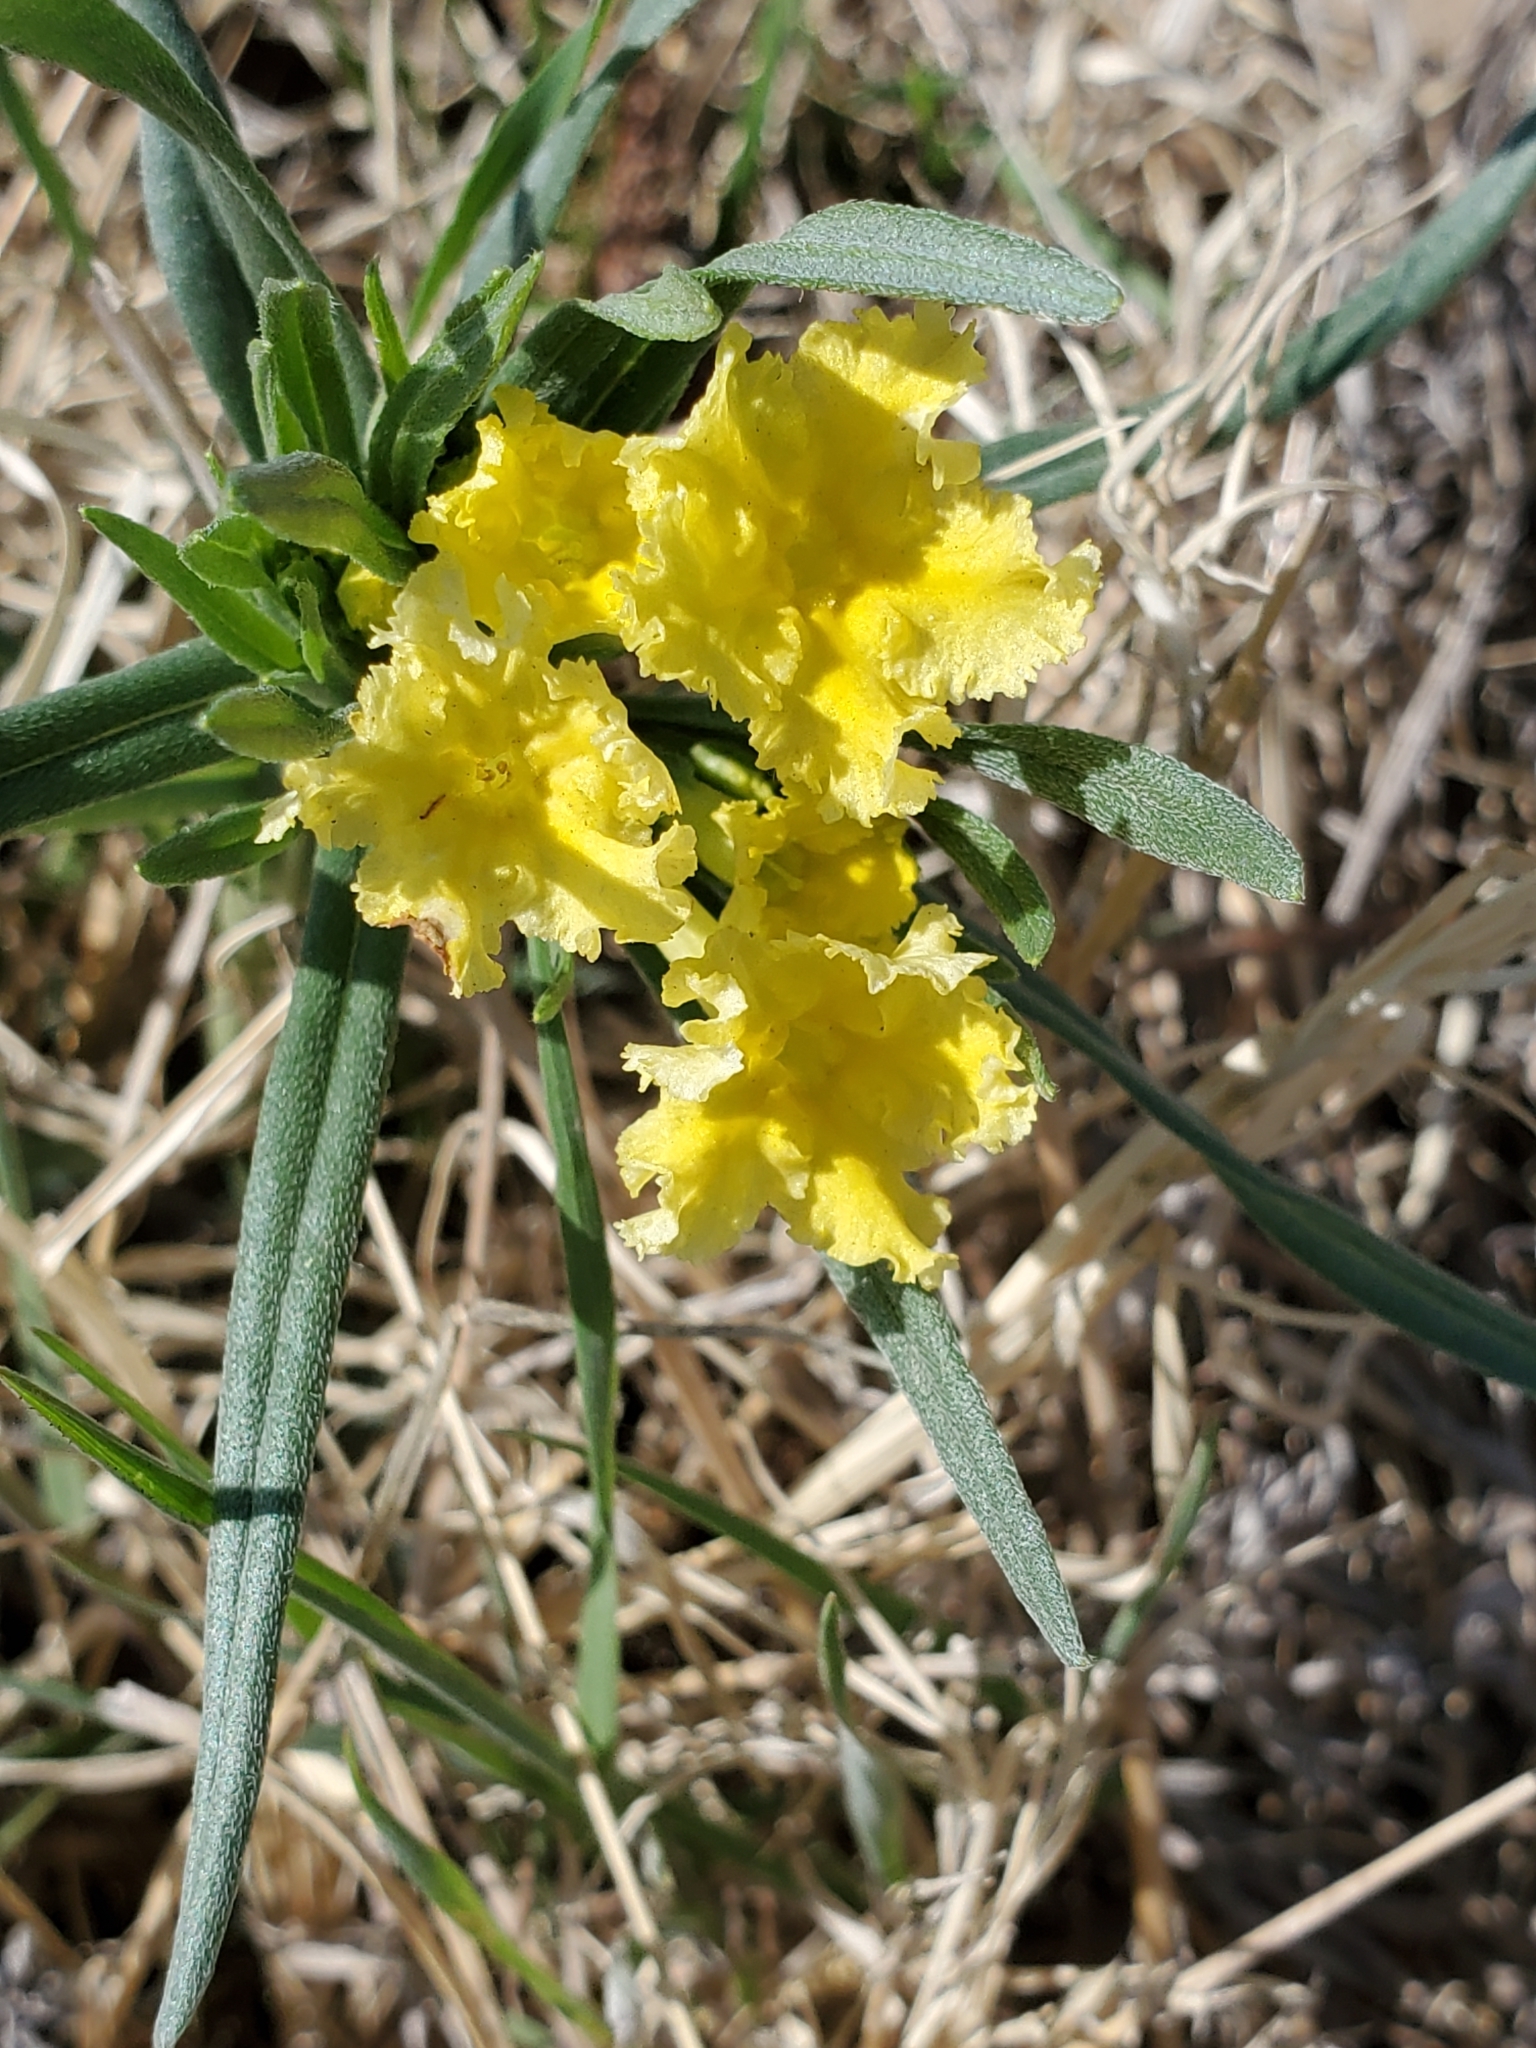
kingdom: Plantae
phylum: Tracheophyta
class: Magnoliopsida
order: Boraginales
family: Boraginaceae
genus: Lithospermum
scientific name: Lithospermum incisum
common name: Fringed gromwell
